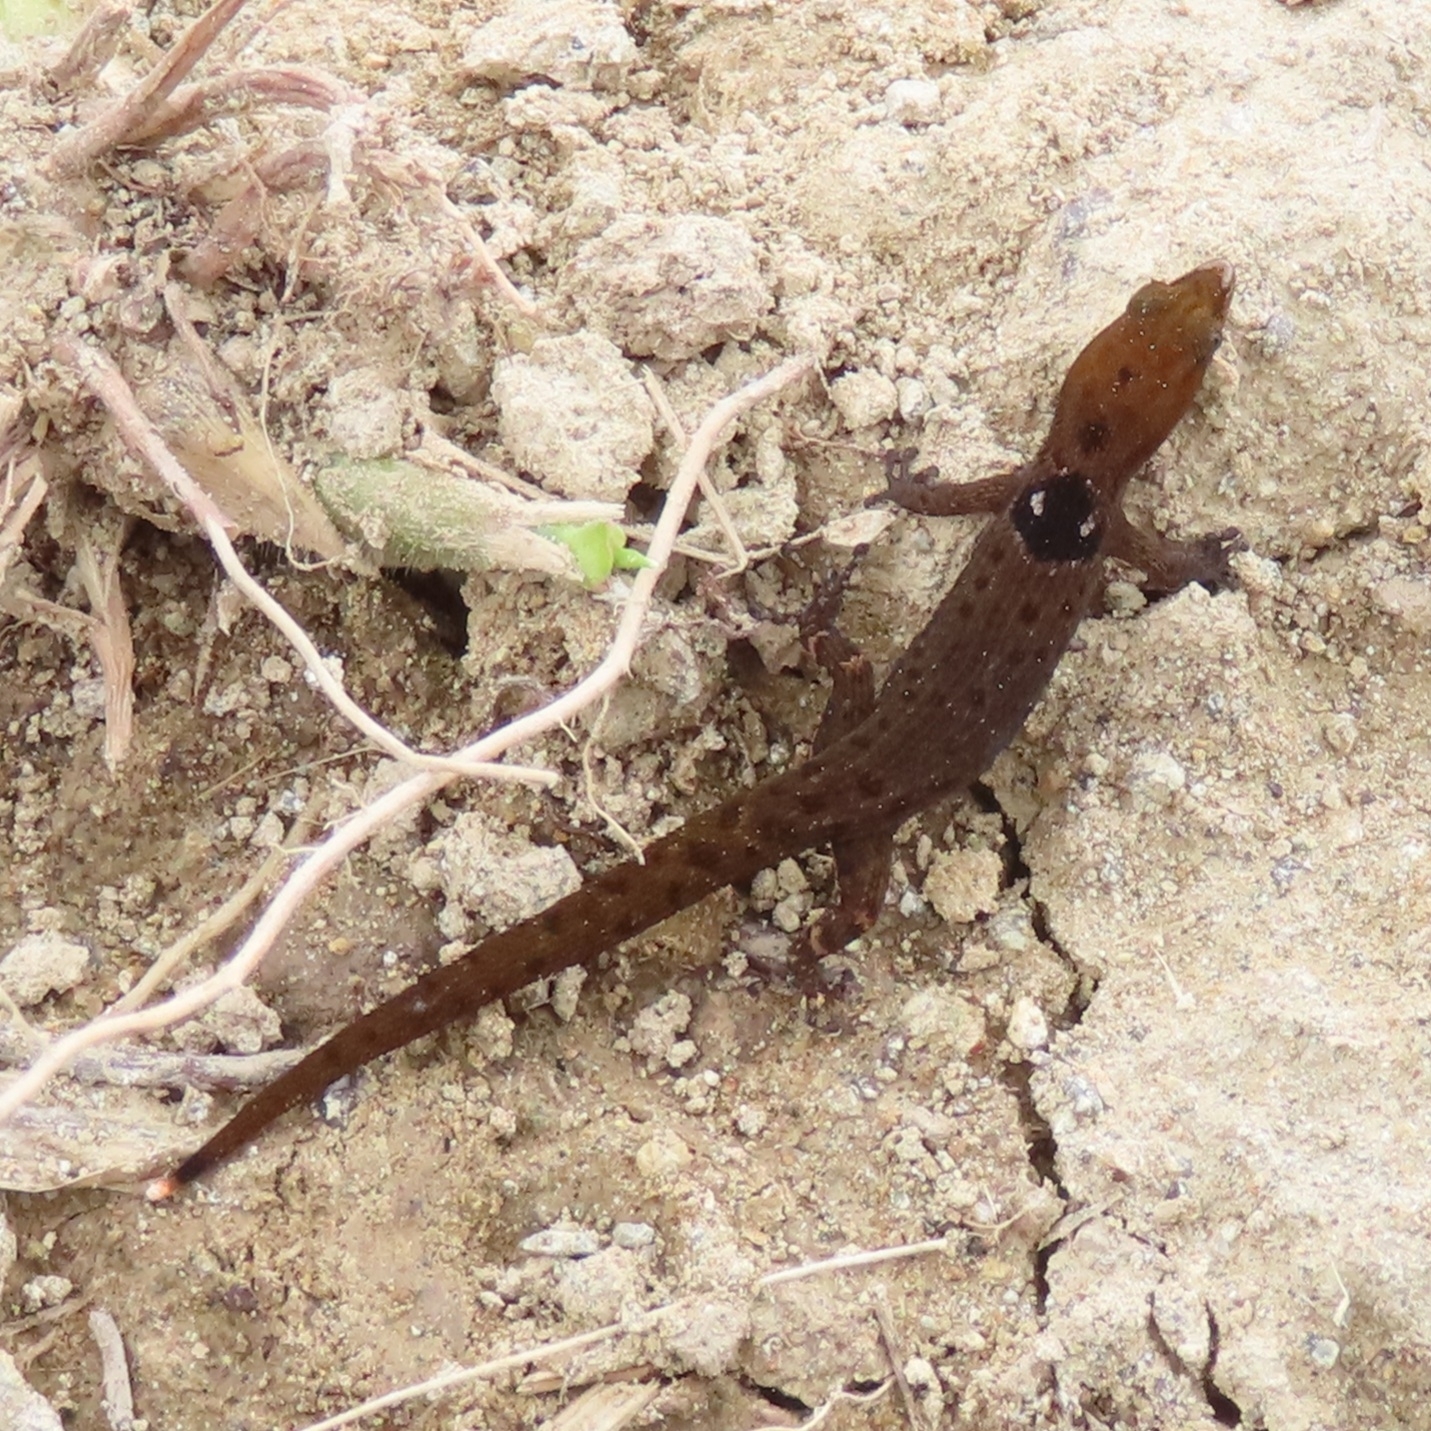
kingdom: Animalia
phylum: Chordata
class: Squamata
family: Sphaerodactylidae
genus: Sphaerodactylus
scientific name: Sphaerodactylus grandisquamis
